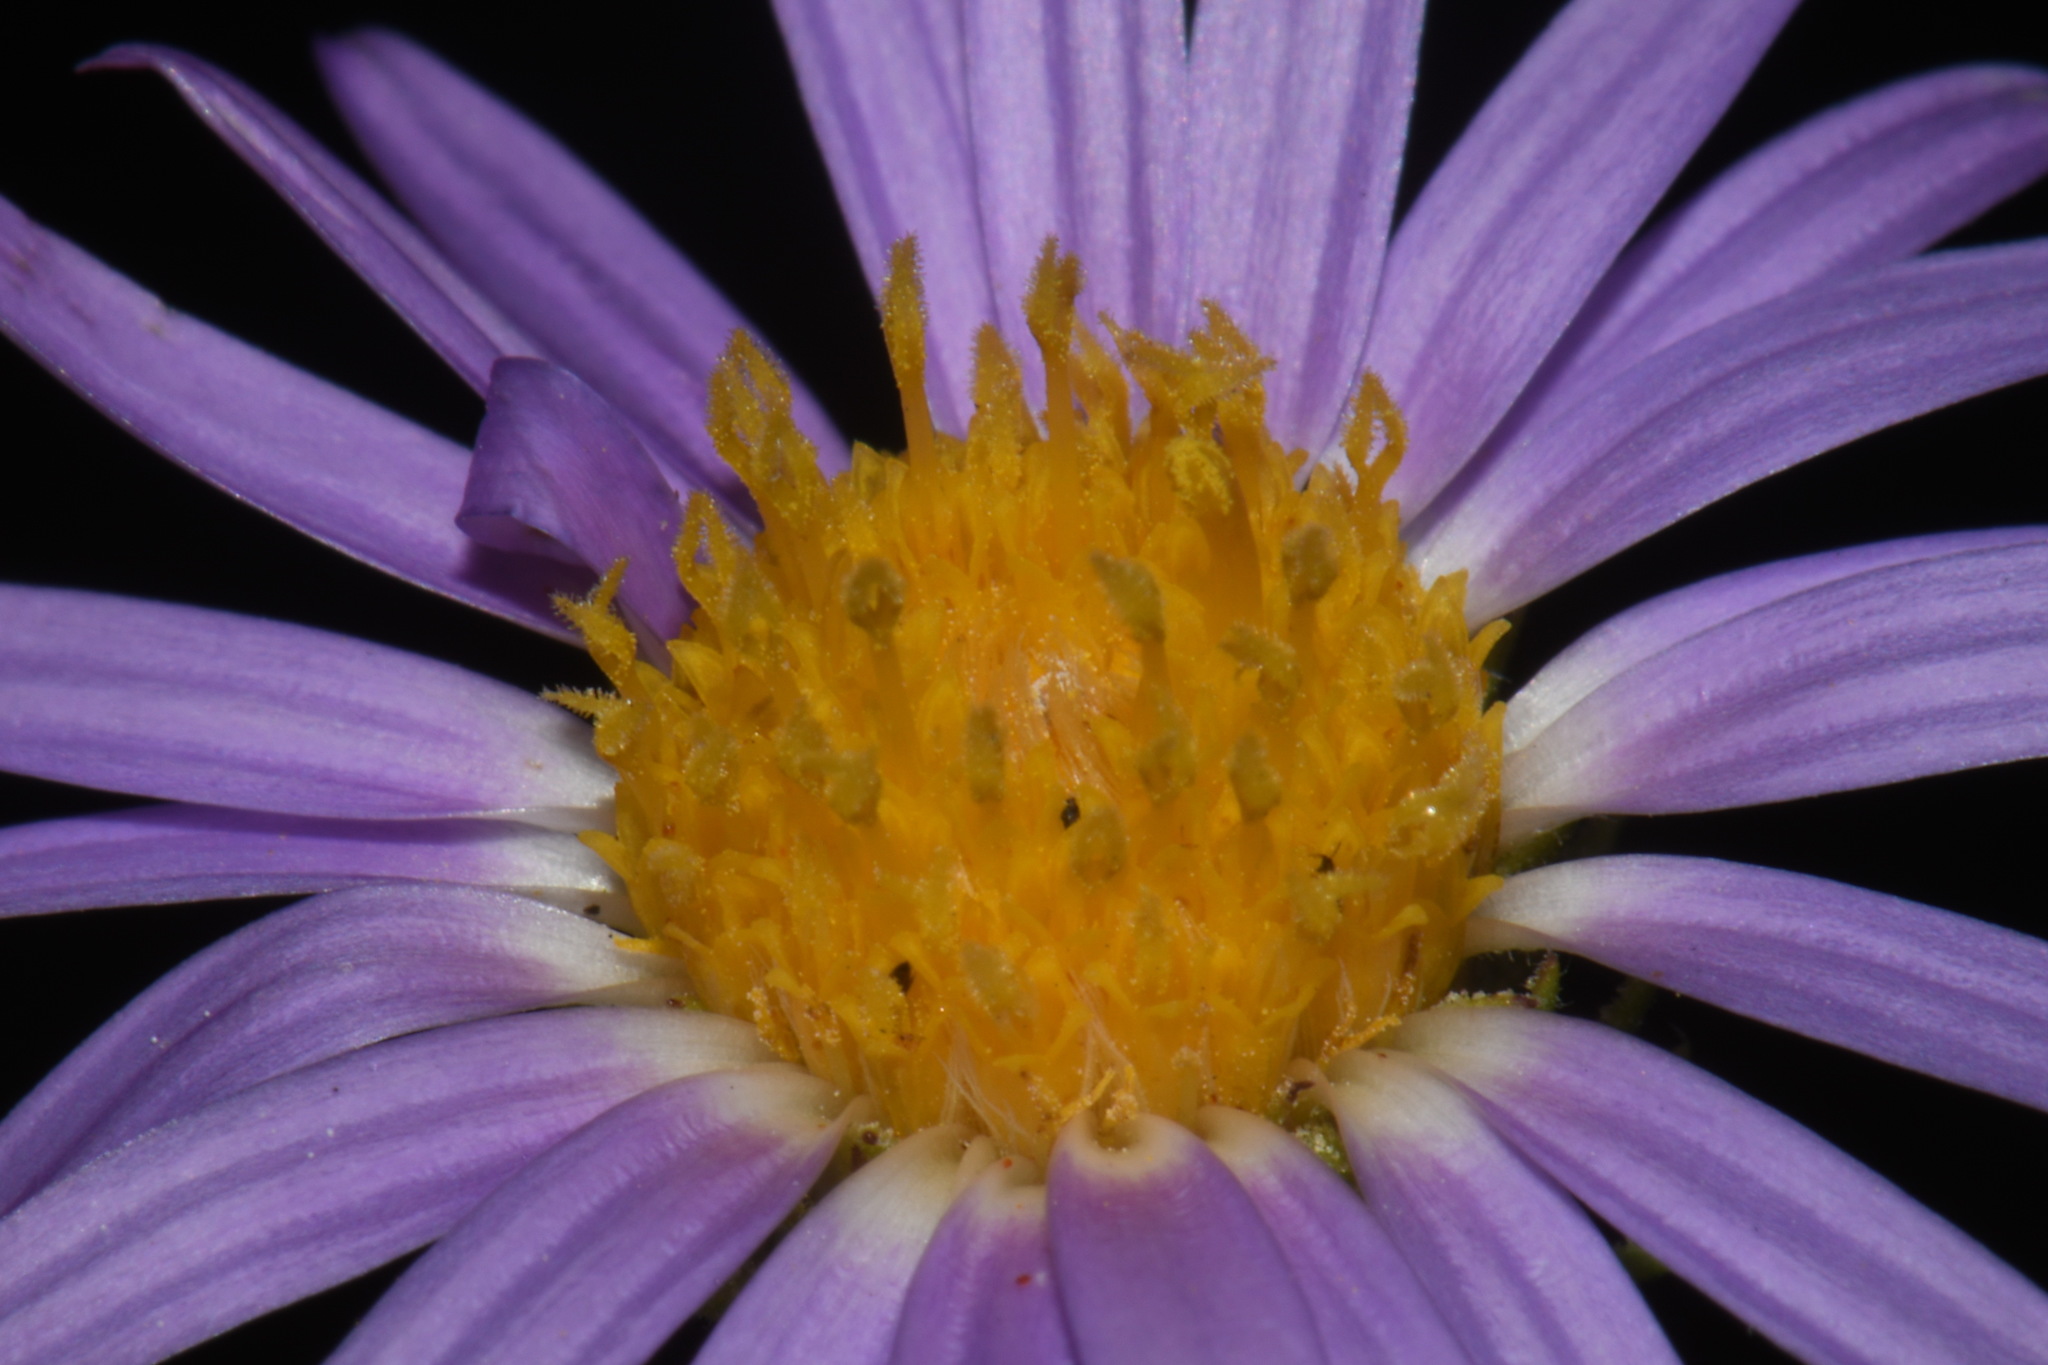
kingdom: Plantae
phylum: Tracheophyta
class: Magnoliopsida
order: Asterales
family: Asteraceae
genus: Machaeranthera
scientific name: Machaeranthera tanacetifolia
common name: Tansy-aster
